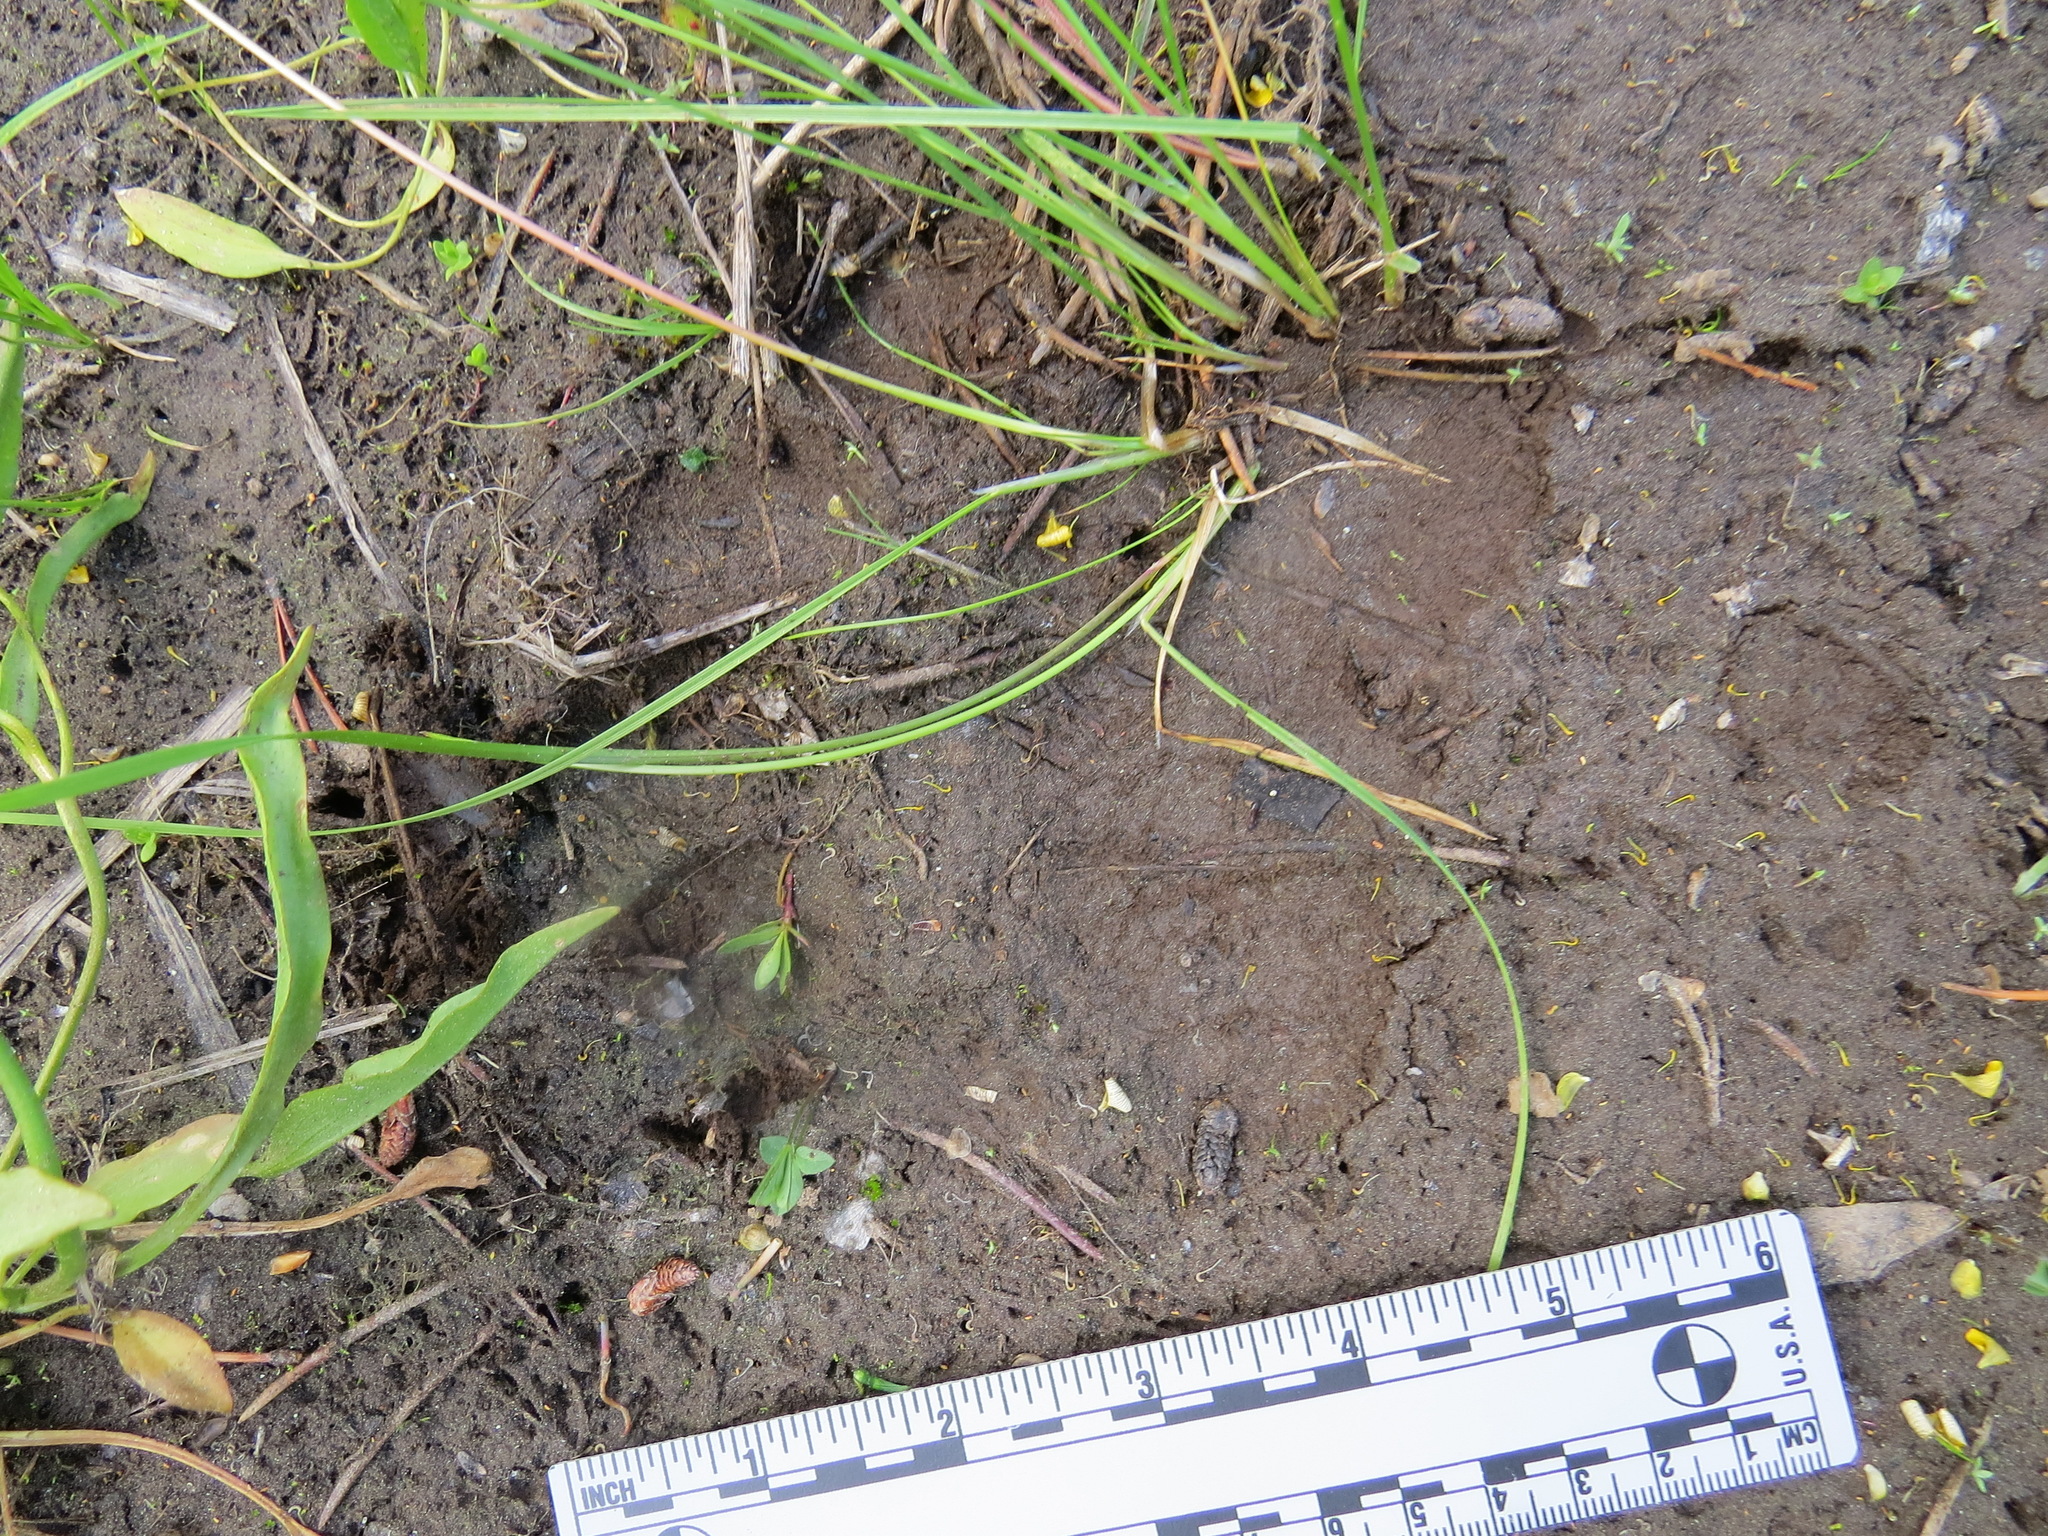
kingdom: Animalia
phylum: Chordata
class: Mammalia
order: Carnivora
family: Ursidae
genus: Ursus
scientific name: Ursus americanus
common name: American black bear
